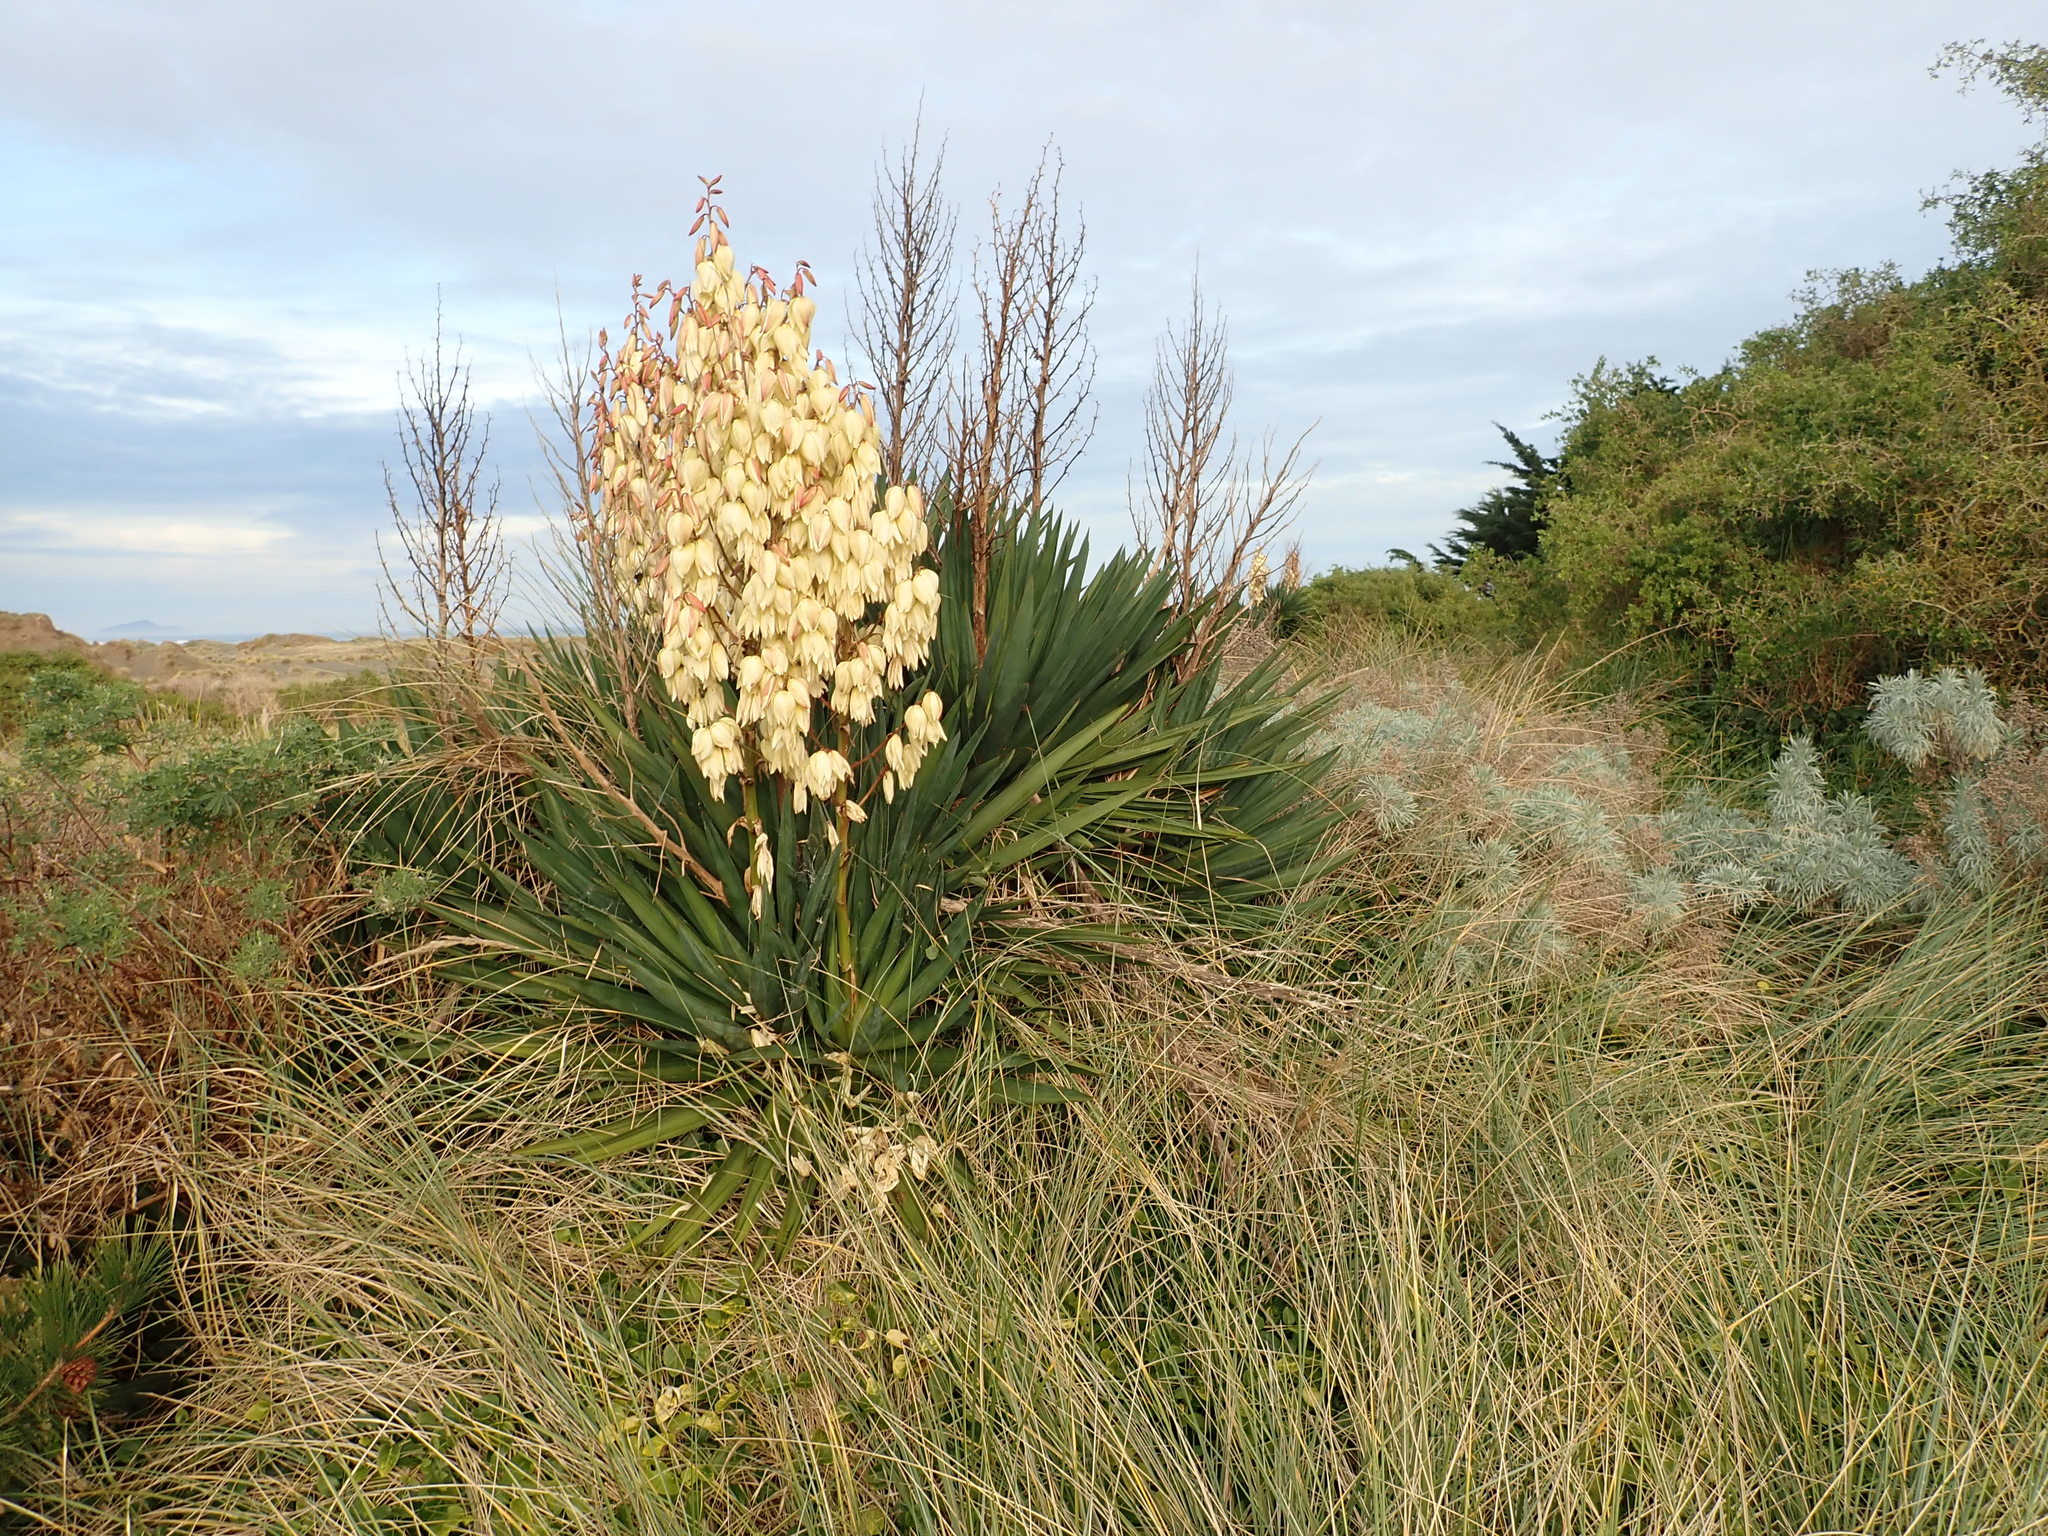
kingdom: Plantae
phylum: Tracheophyta
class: Liliopsida
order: Asparagales
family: Asparagaceae
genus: Yucca
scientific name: Yucca gloriosa
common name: Spanish-dagger
